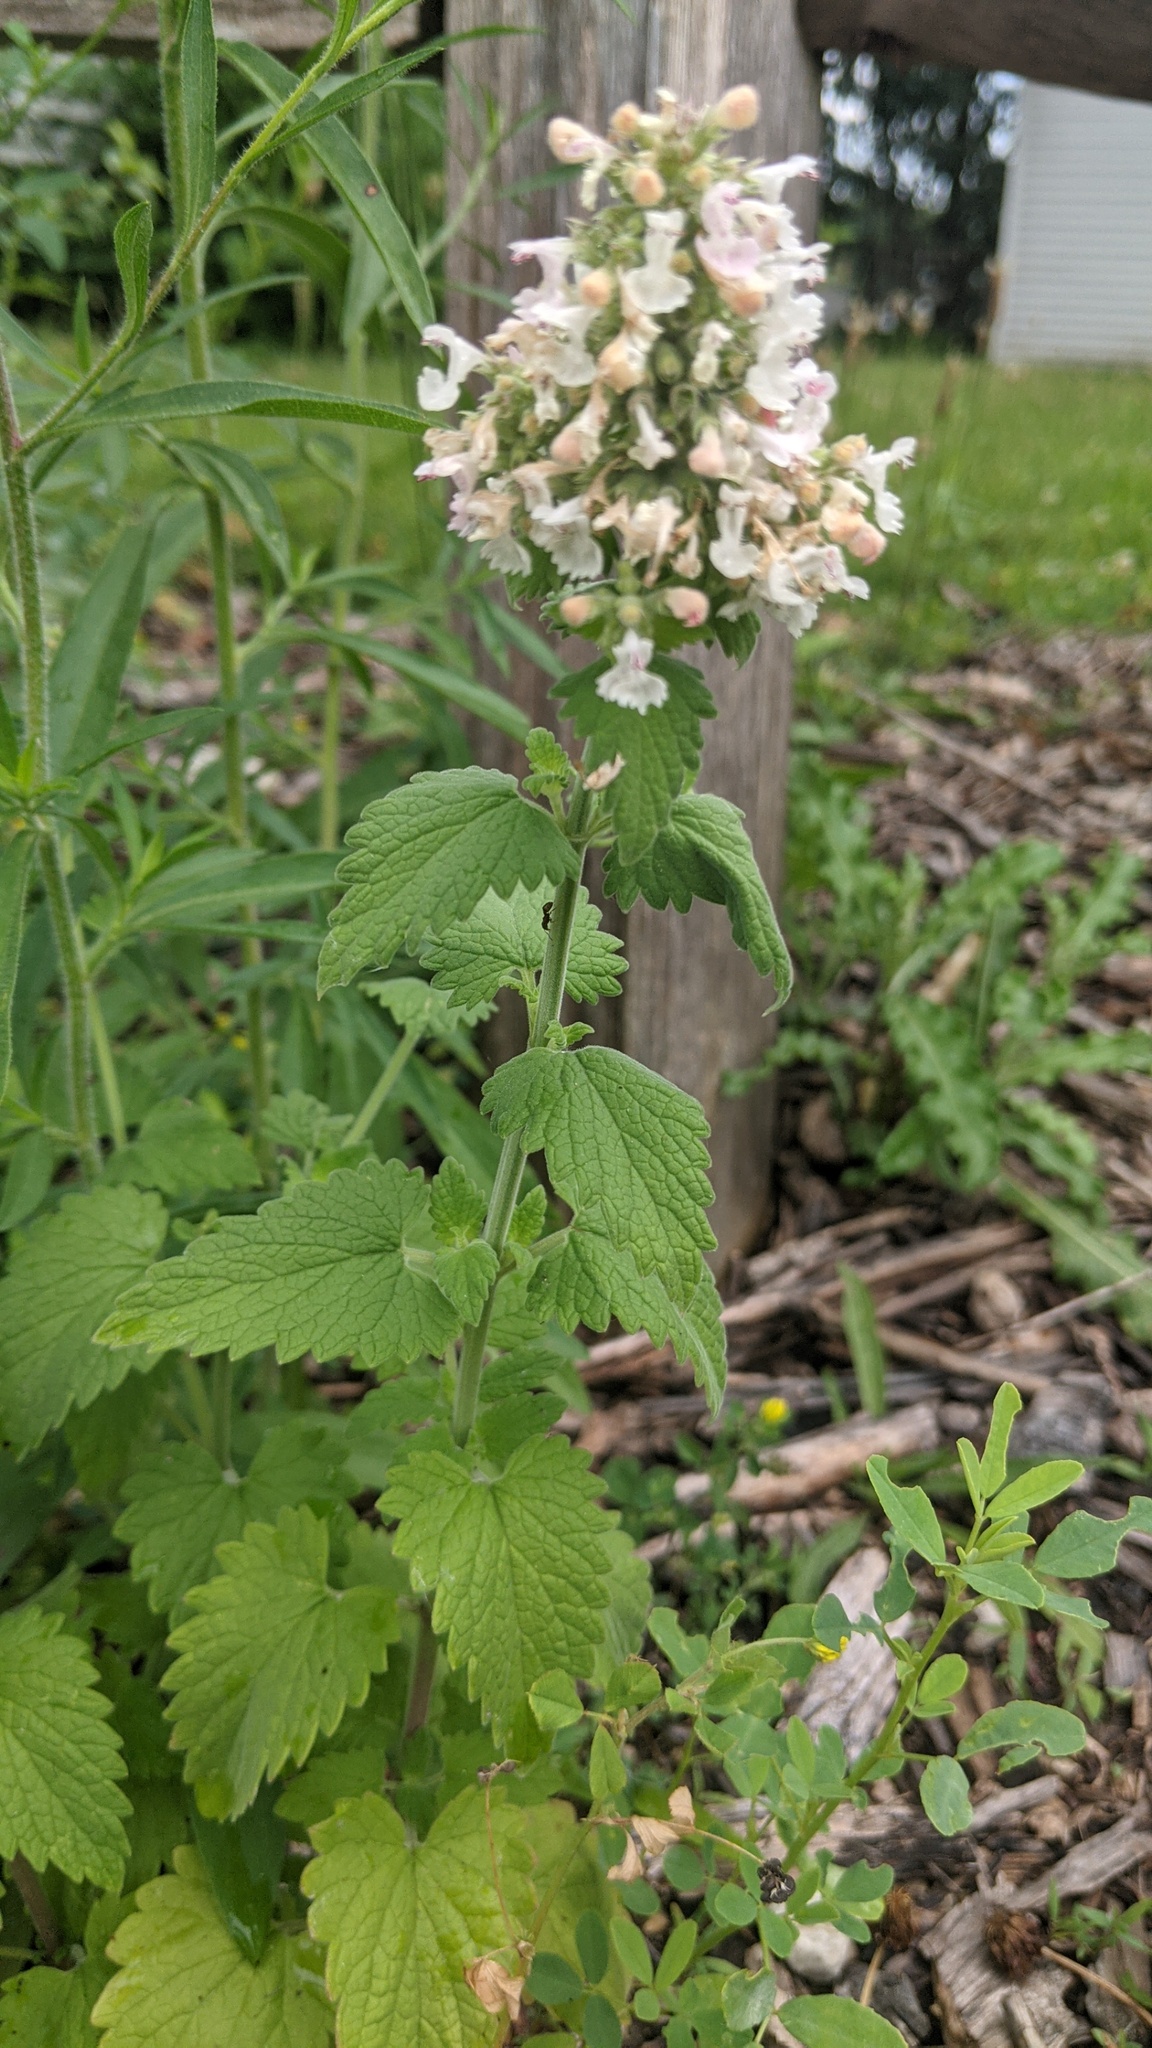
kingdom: Plantae
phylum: Tracheophyta
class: Magnoliopsida
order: Lamiales
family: Lamiaceae
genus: Nepeta
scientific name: Nepeta cataria
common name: Catnip
